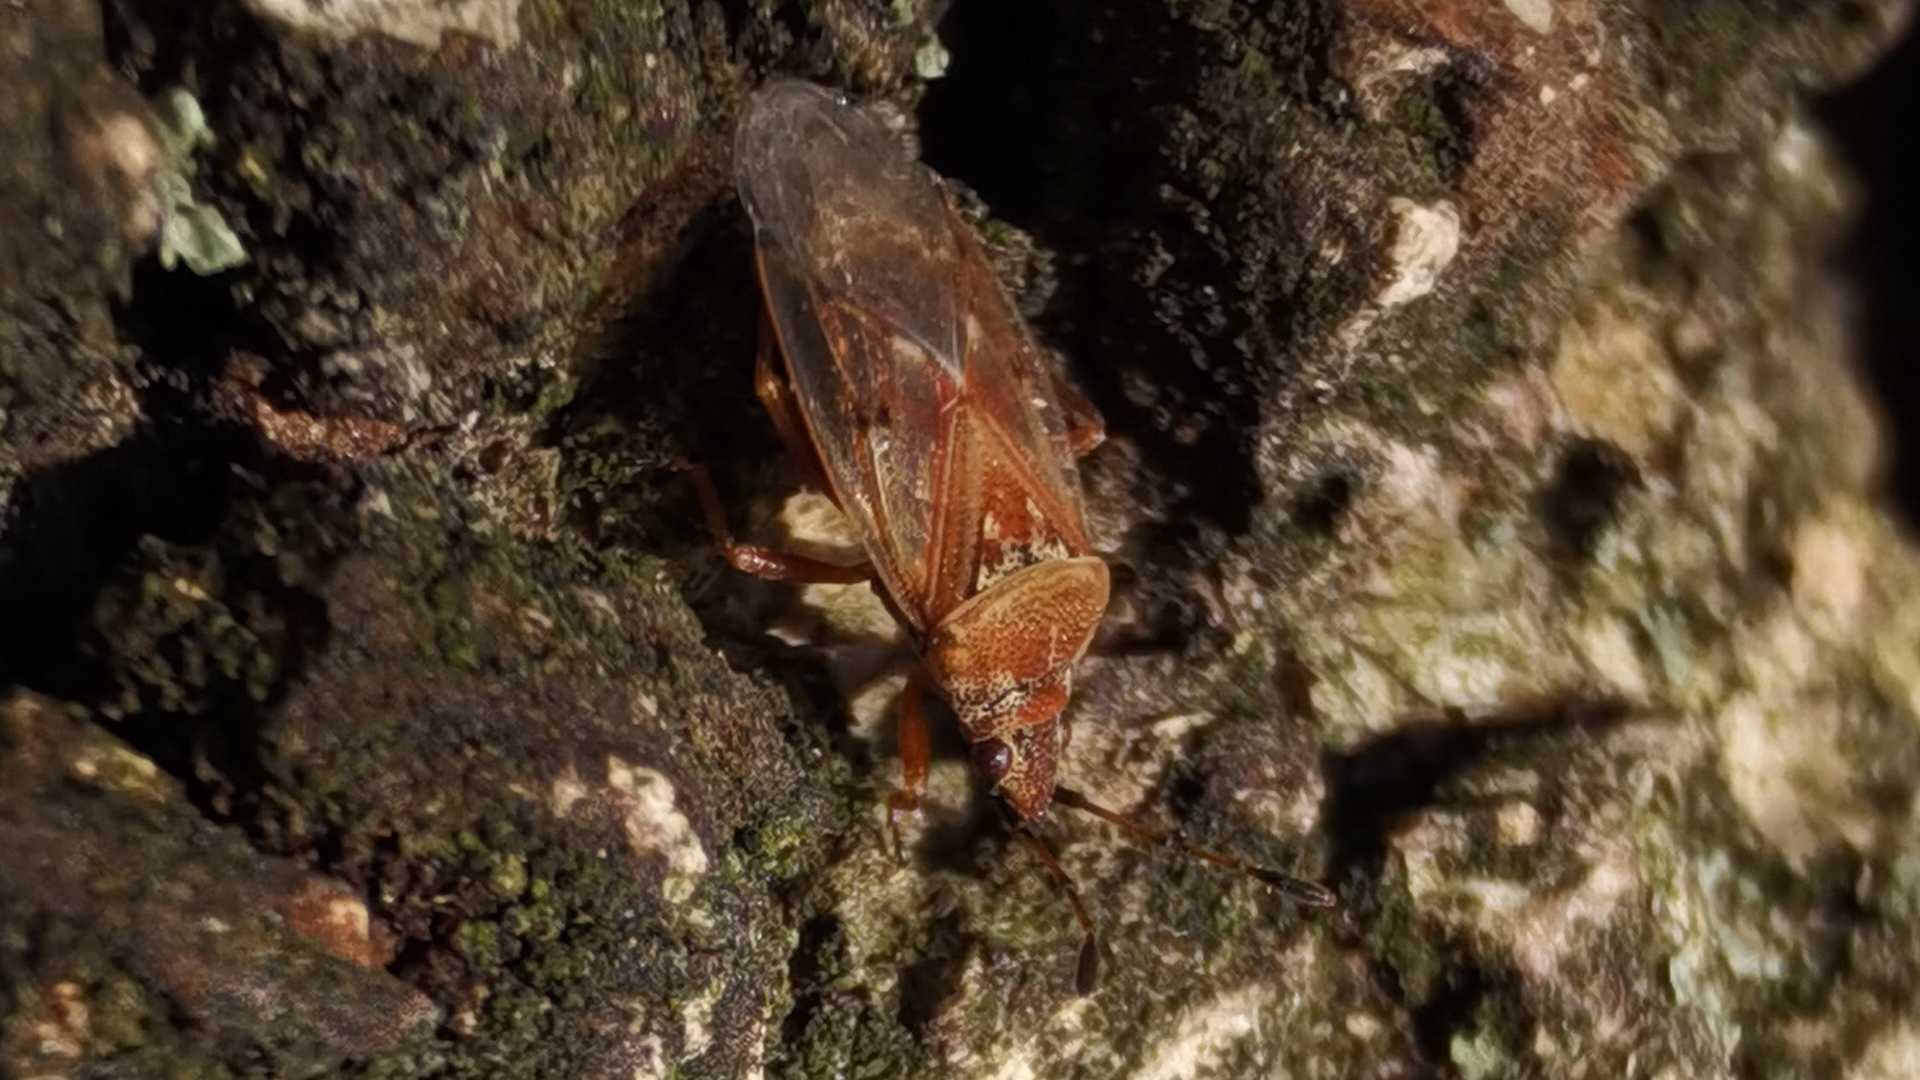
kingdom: Animalia
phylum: Arthropoda
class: Insecta
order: Hemiptera
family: Lygaeidae
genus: Kleidocerys
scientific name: Kleidocerys resedae
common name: Birch catkin bug
